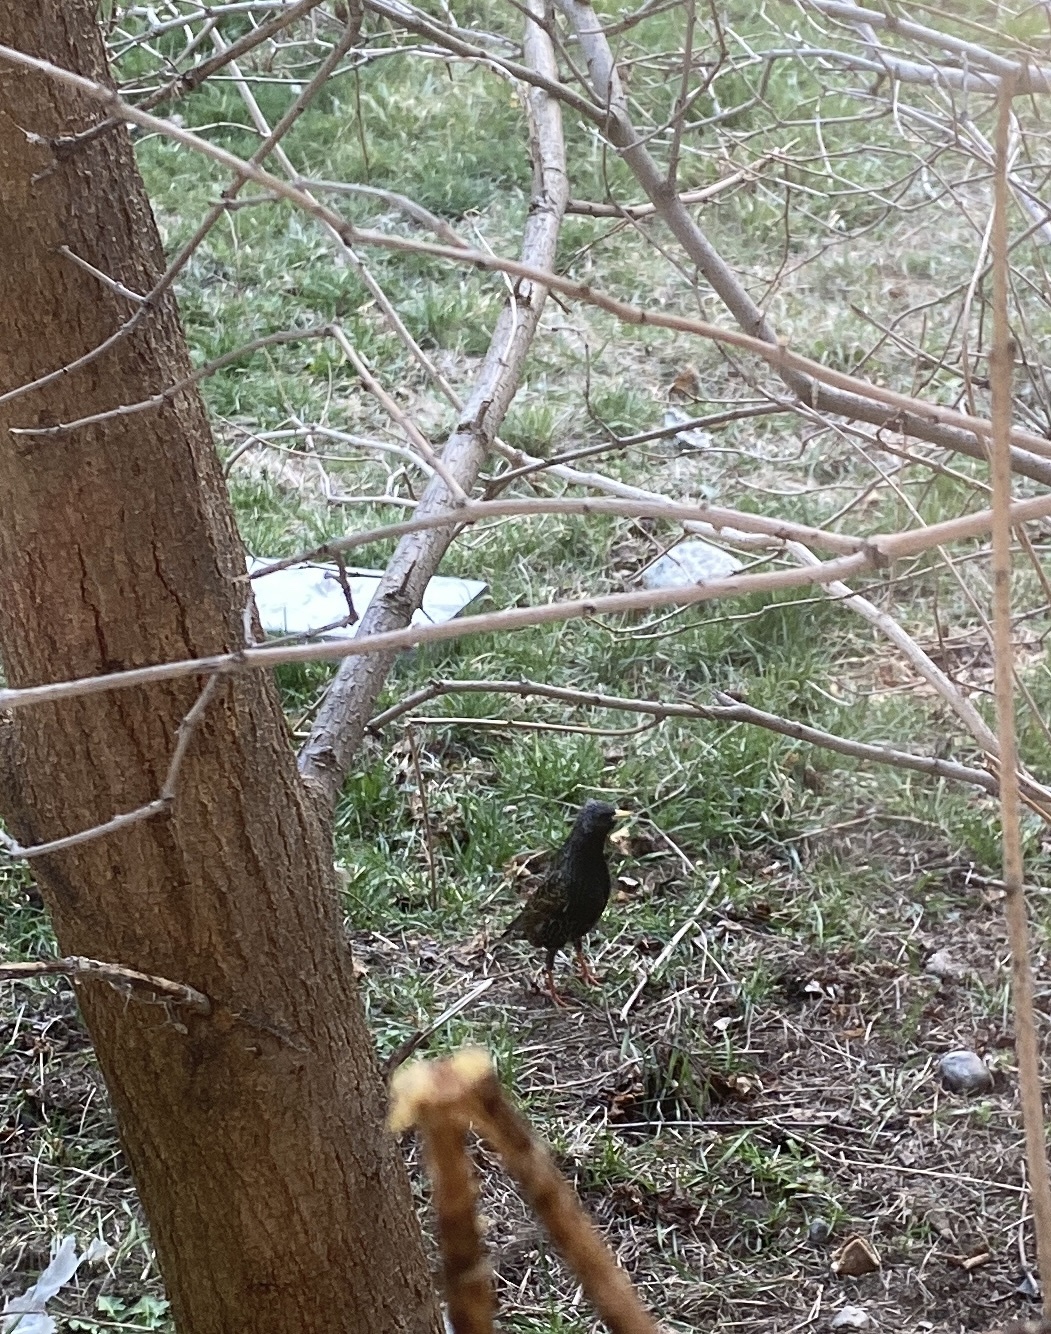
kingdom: Animalia
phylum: Chordata
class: Aves
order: Passeriformes
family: Sturnidae
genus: Sturnus
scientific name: Sturnus vulgaris
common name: Common starling
